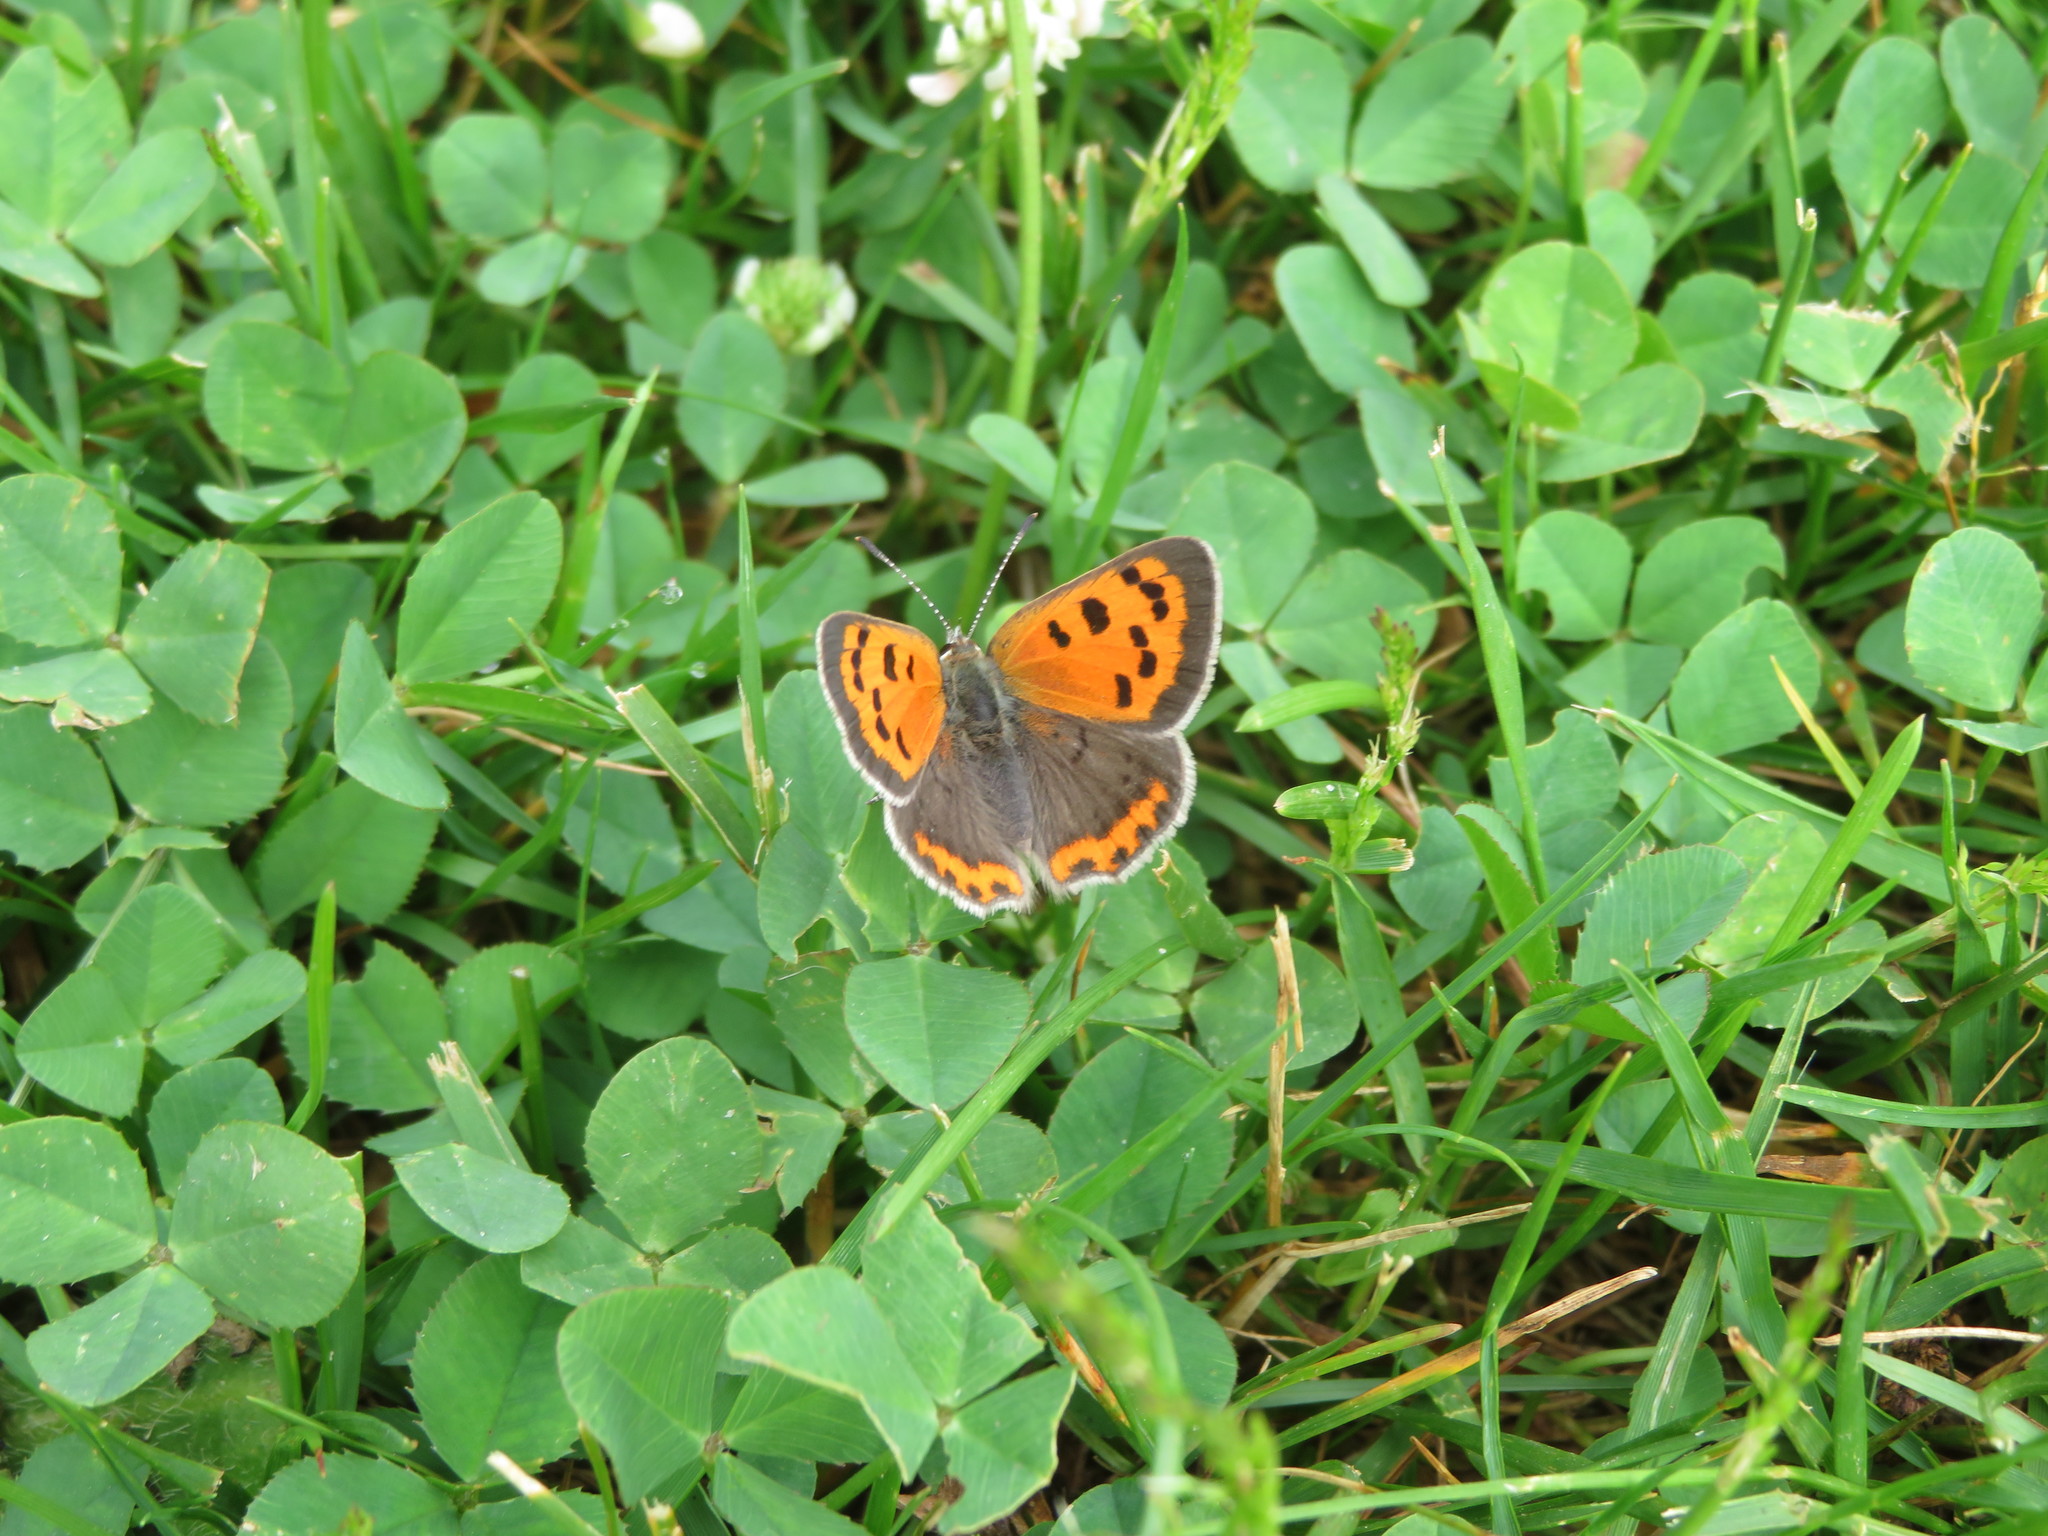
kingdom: Animalia
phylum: Arthropoda
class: Insecta
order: Lepidoptera
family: Lycaenidae
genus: Lycaena
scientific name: Lycaena hypophlaeas
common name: American copper
